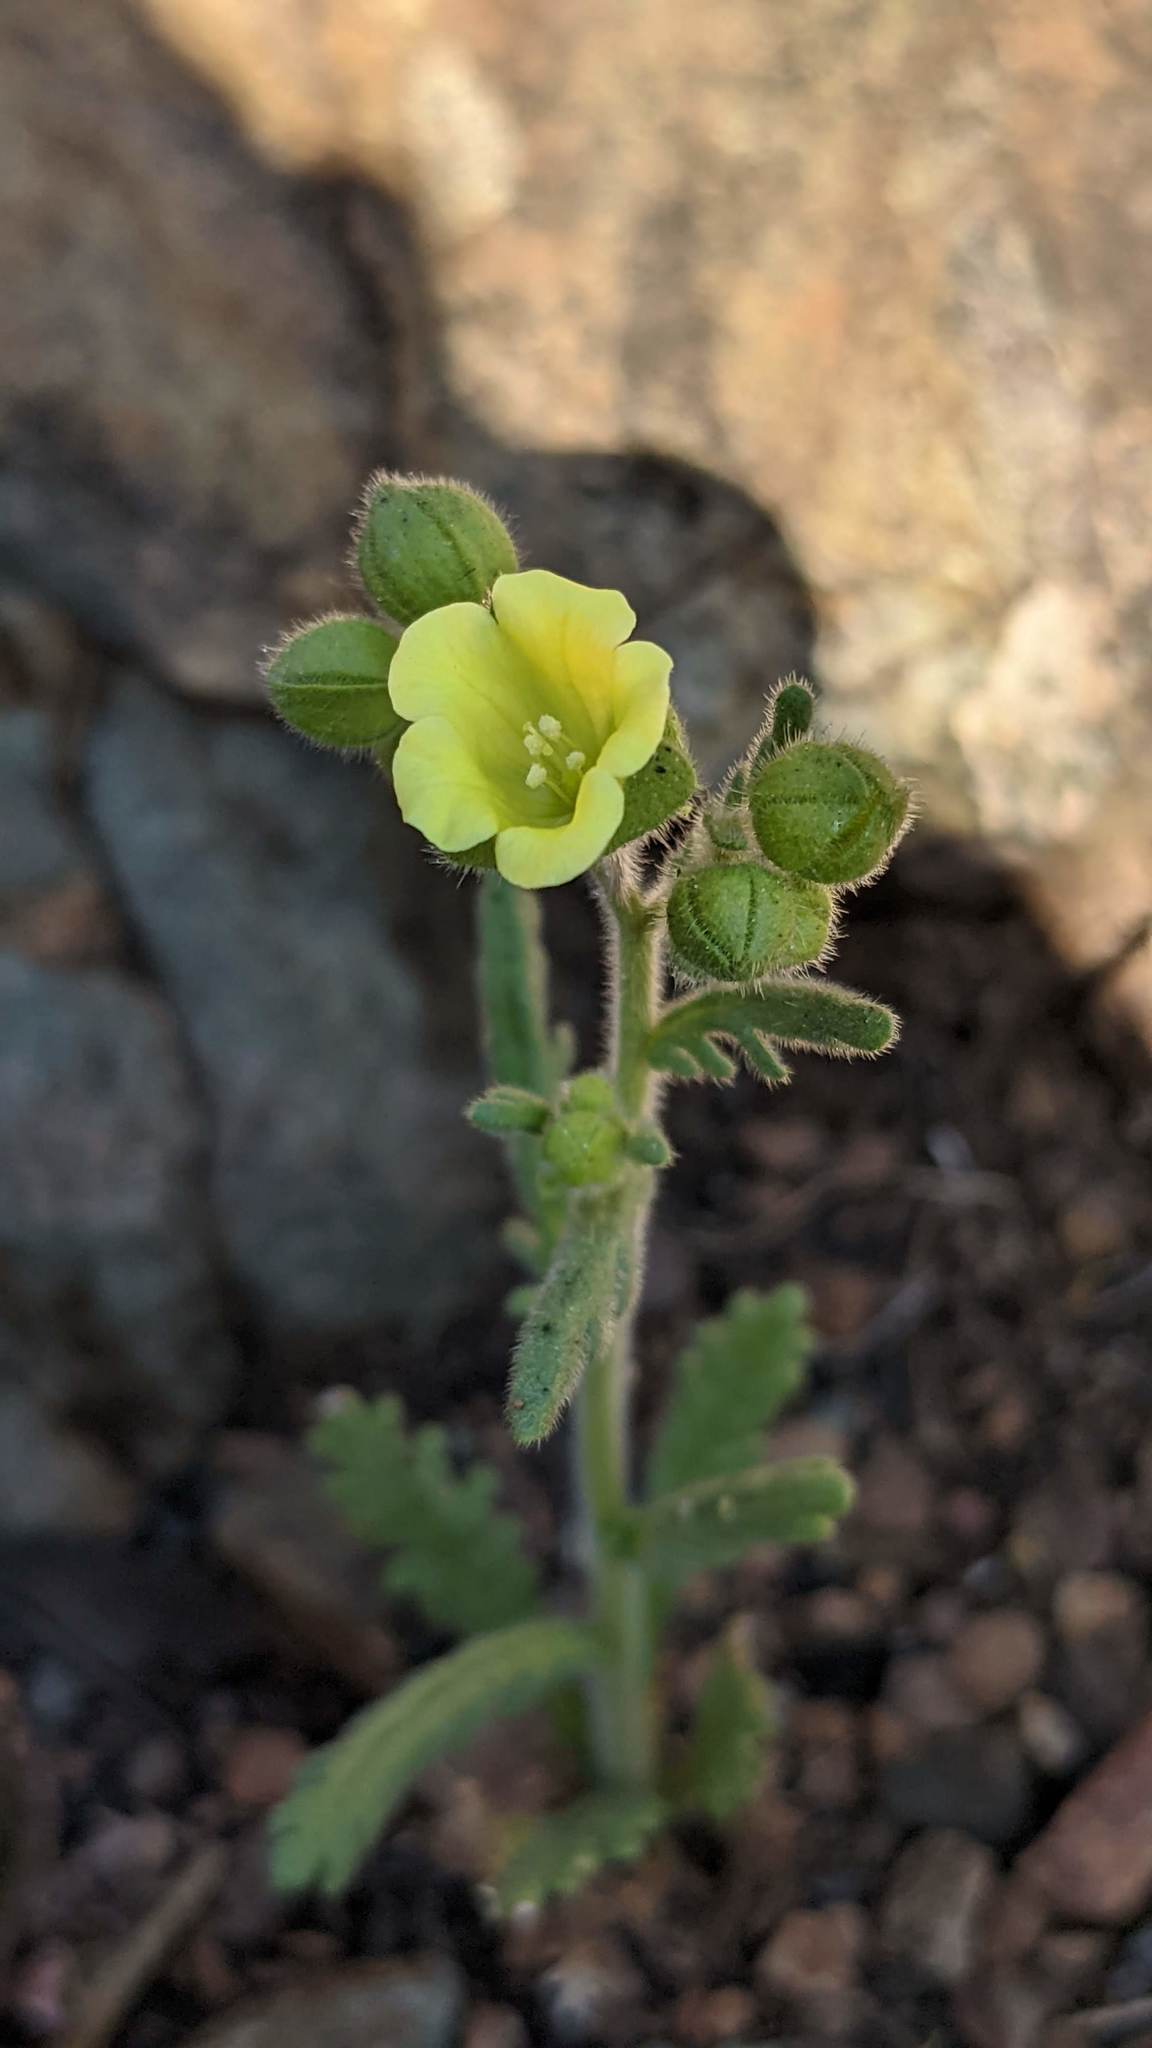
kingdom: Plantae
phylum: Tracheophyta
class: Magnoliopsida
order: Boraginales
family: Hydrophyllaceae
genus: Emmenanthe
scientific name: Emmenanthe penduliflora
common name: Whispering-bells
